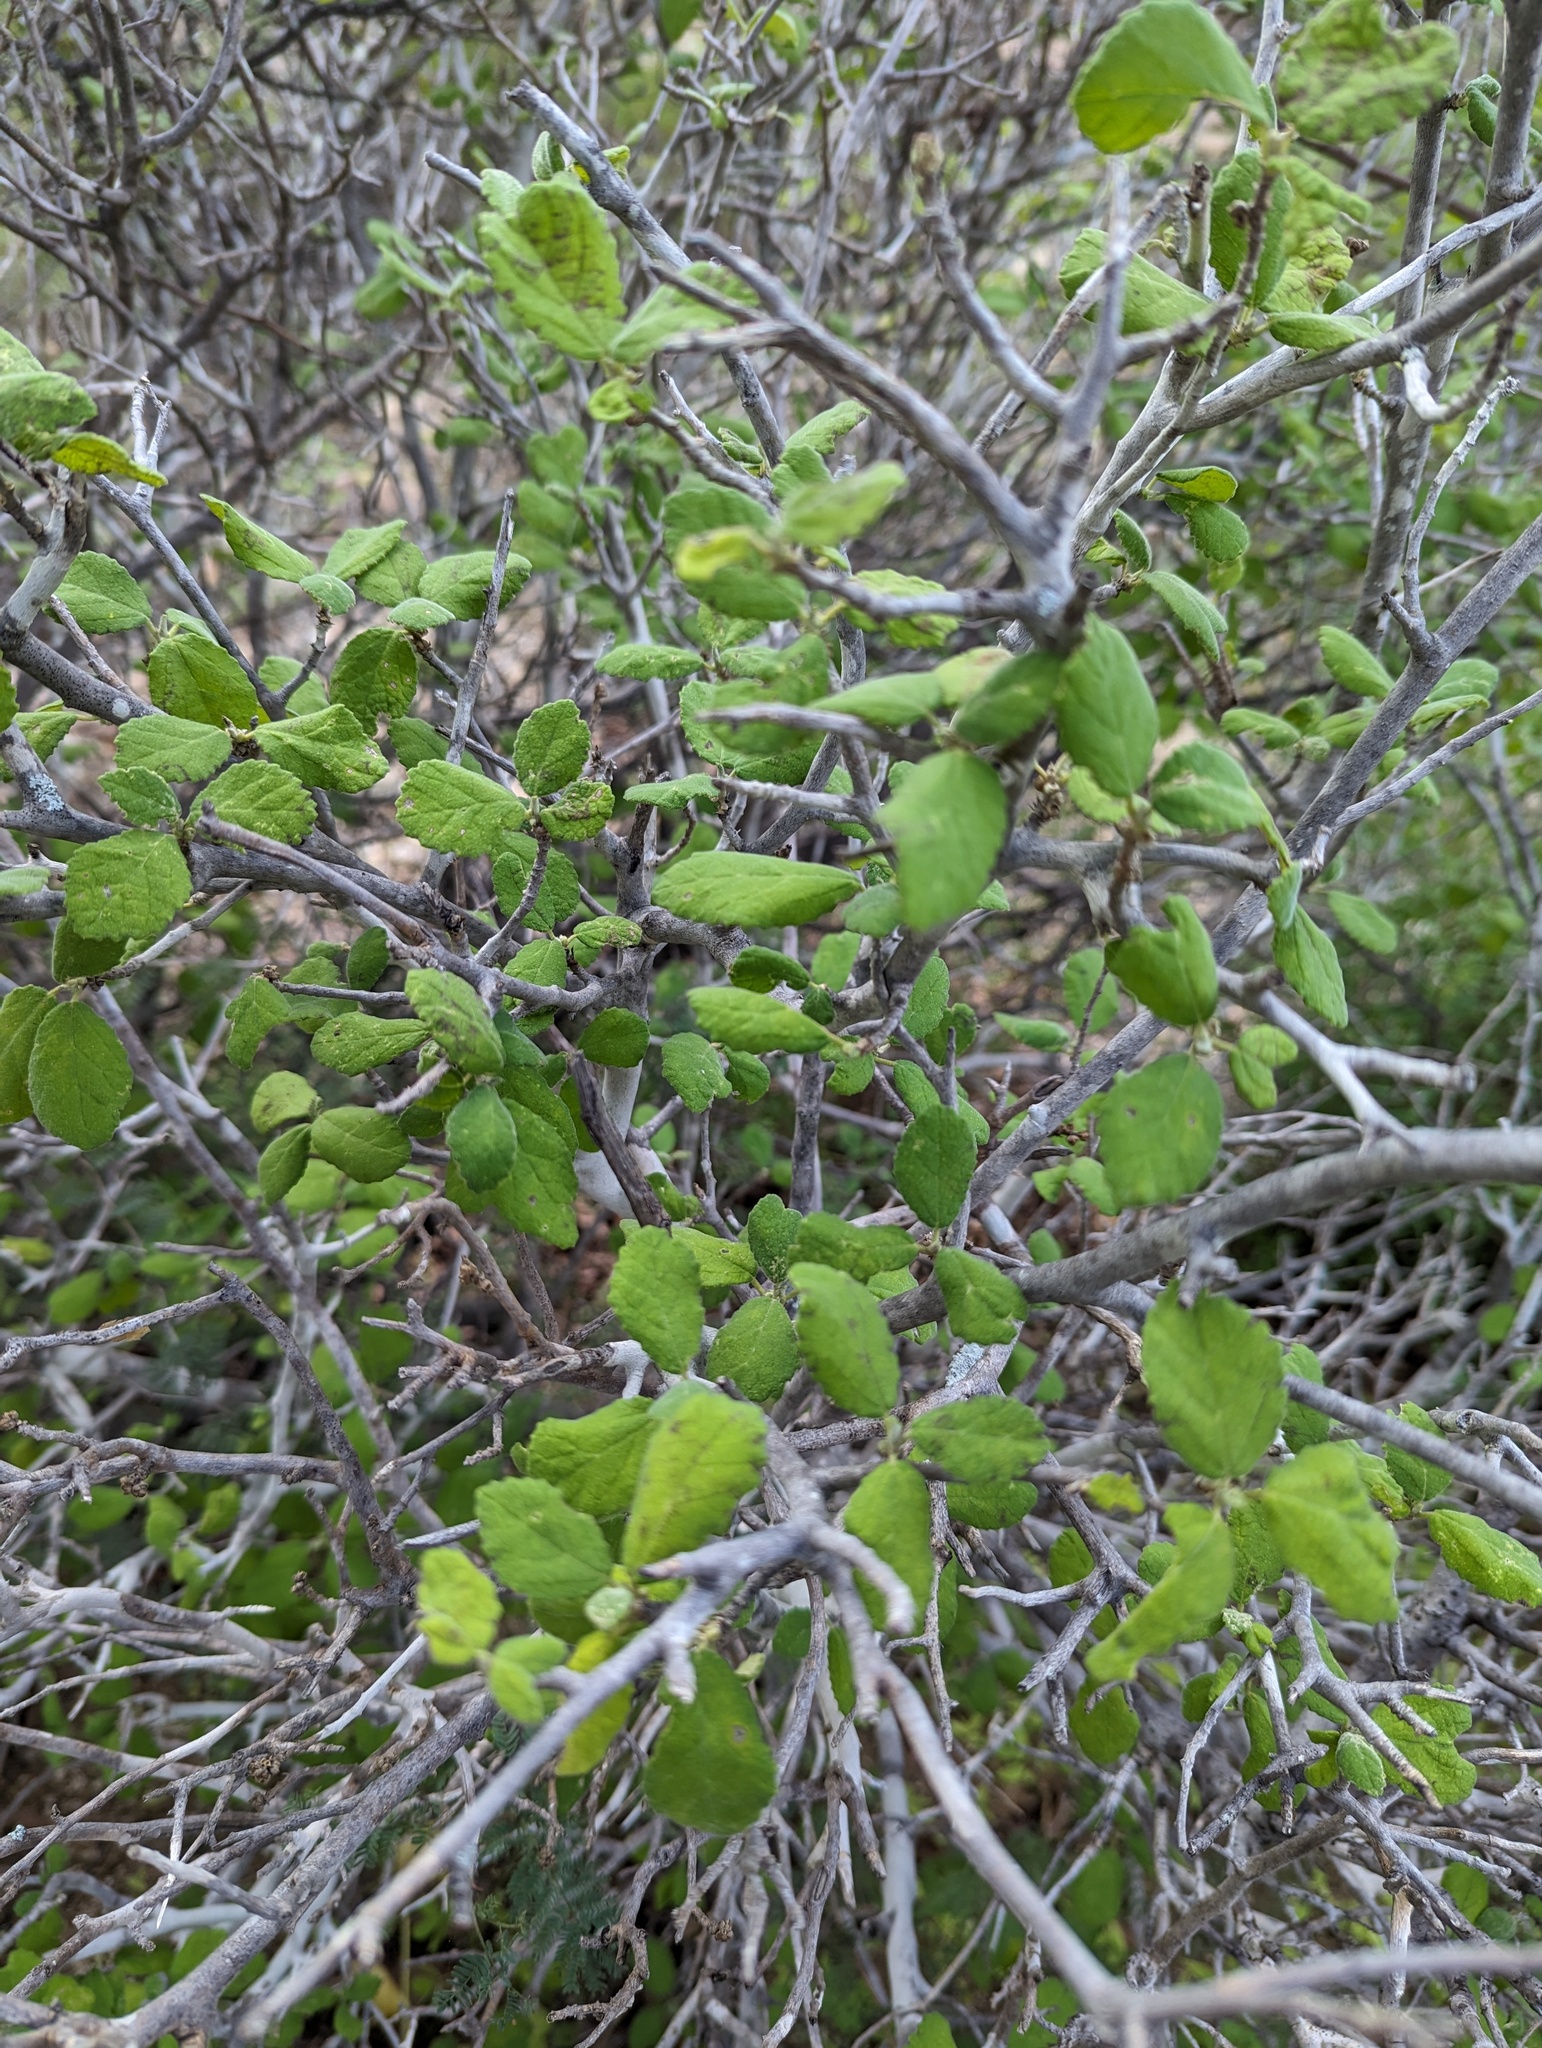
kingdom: Plantae
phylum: Tracheophyta
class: Magnoliopsida
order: Malpighiales
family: Euphorbiaceae
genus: Bernardia
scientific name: Bernardia viridis
